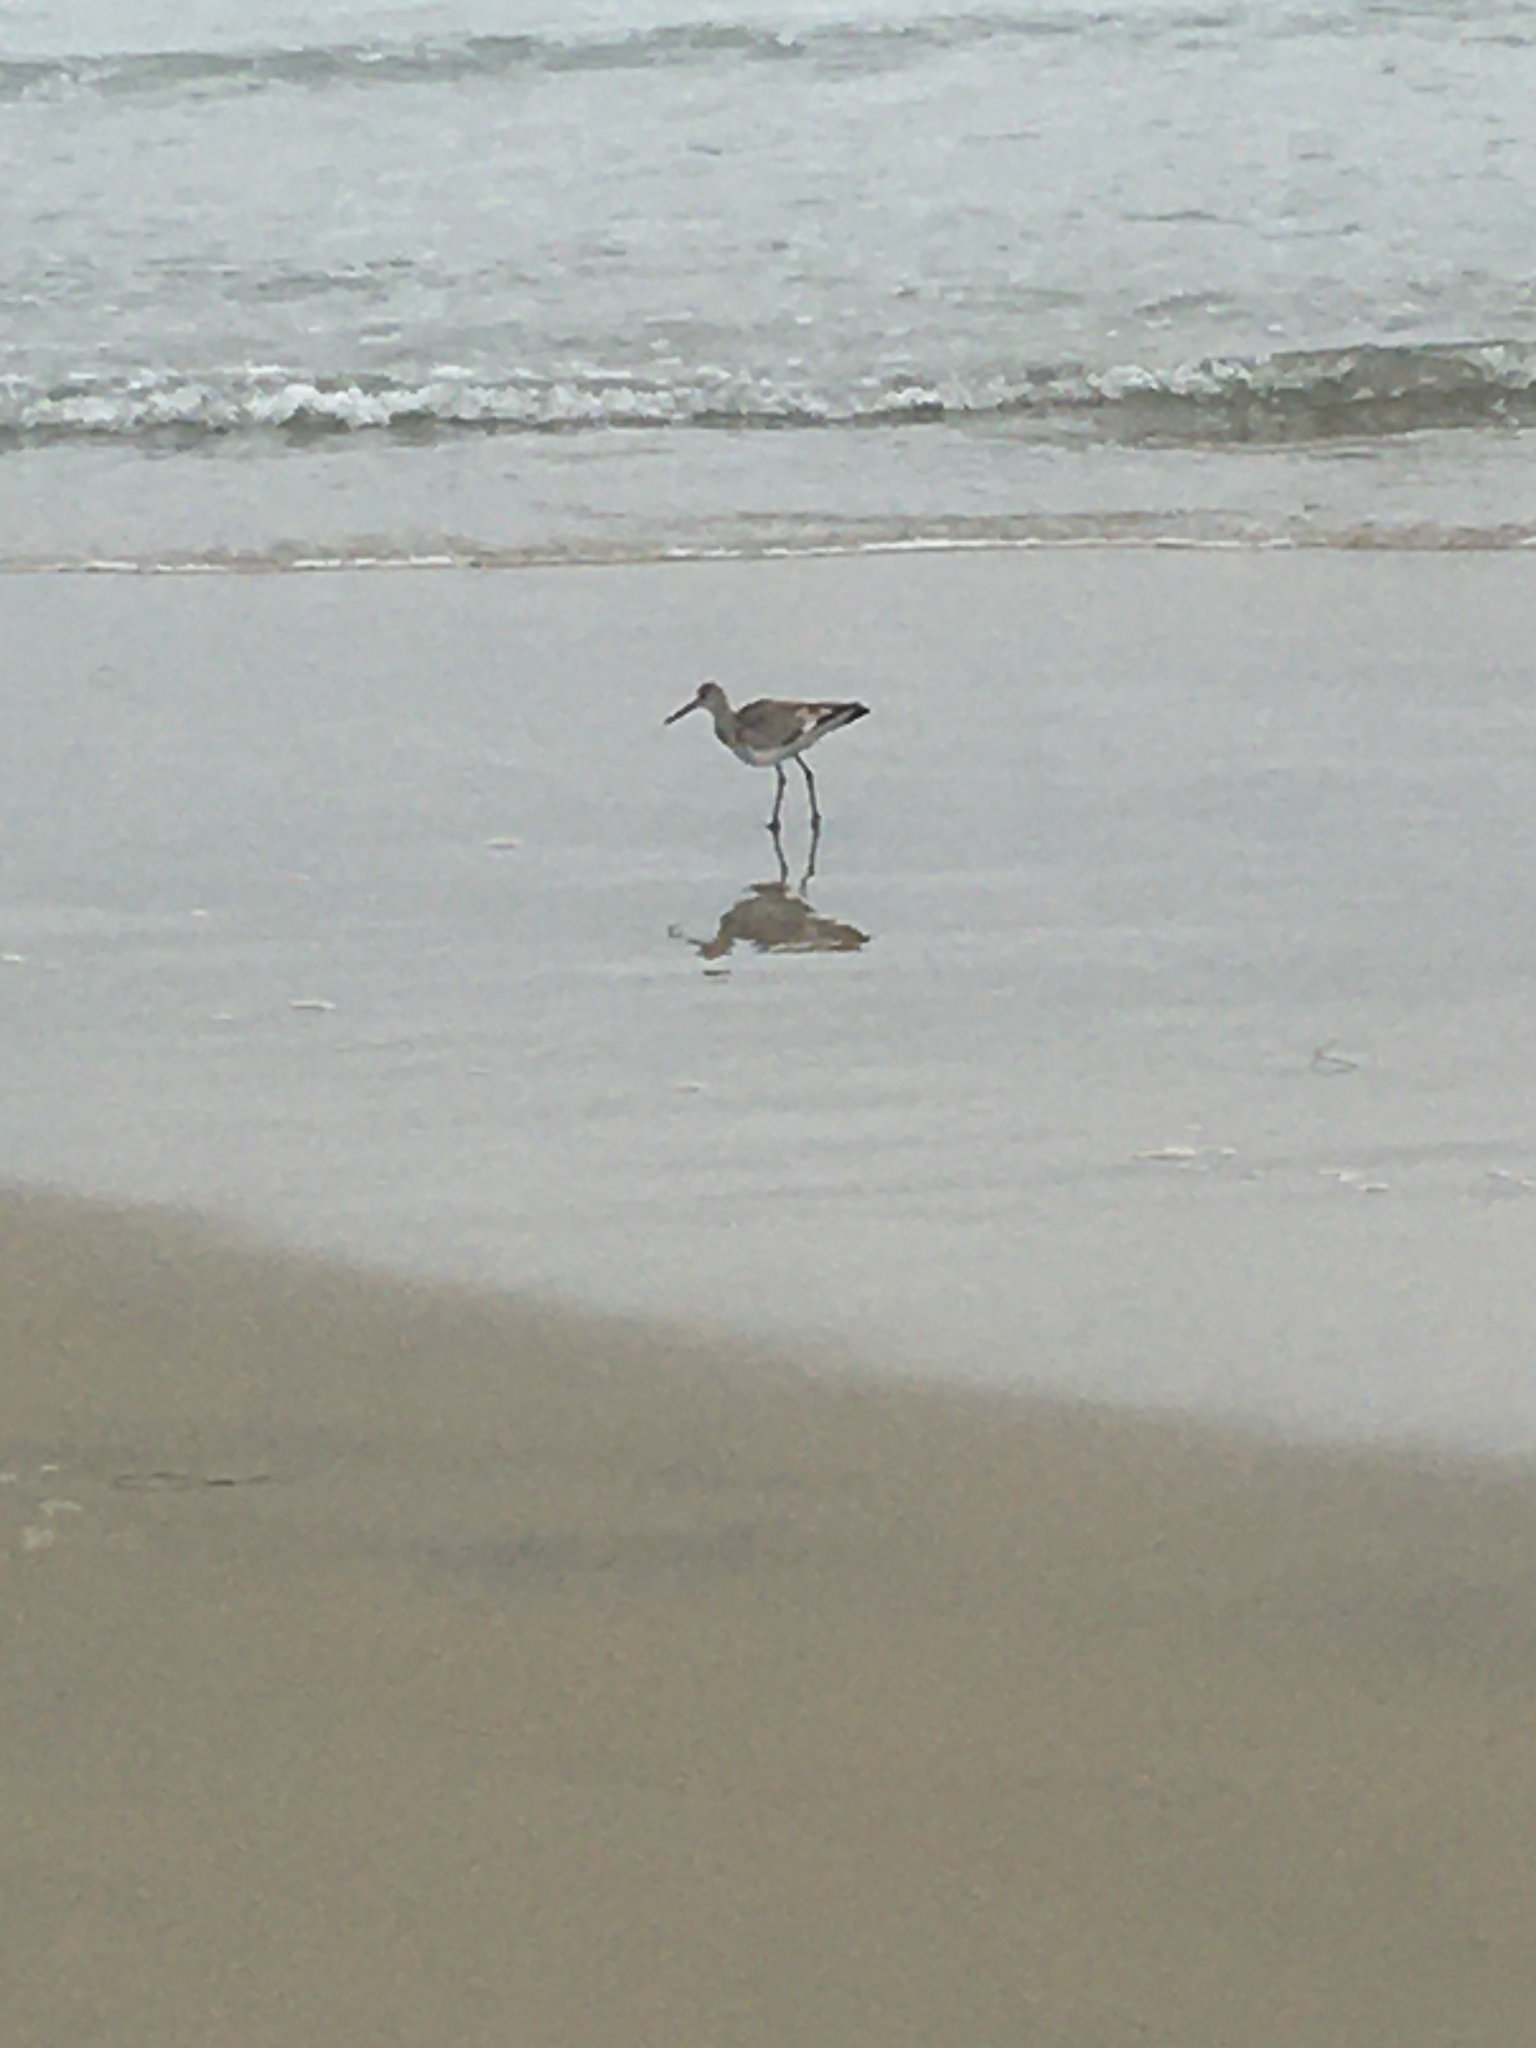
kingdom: Animalia
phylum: Chordata
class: Aves
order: Charadriiformes
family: Scolopacidae
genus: Tringa
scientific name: Tringa semipalmata
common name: Willet
